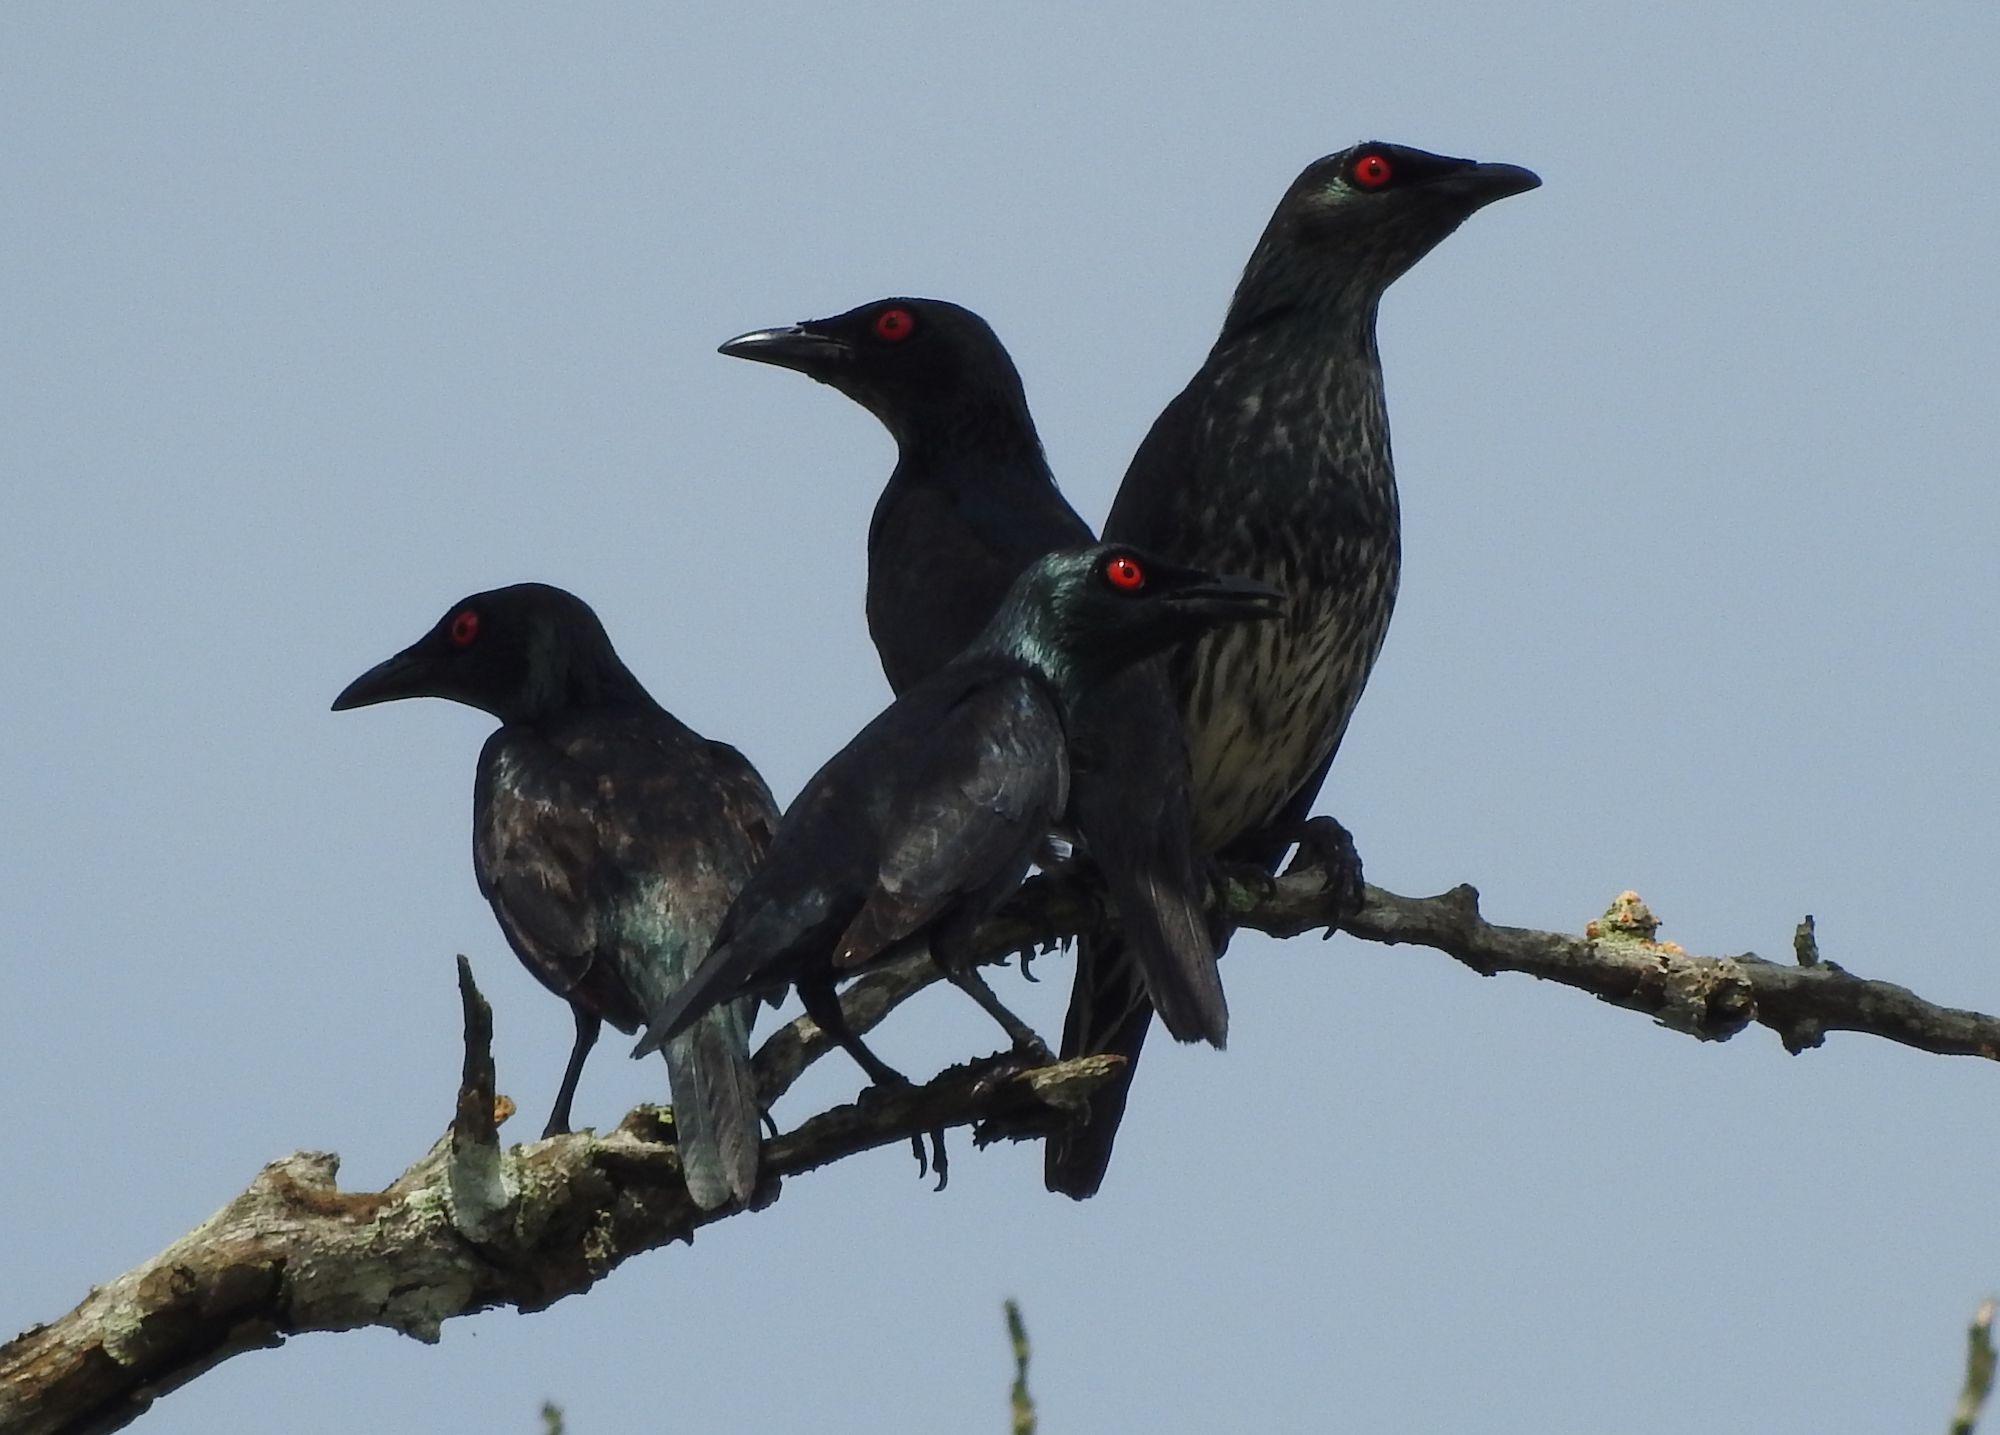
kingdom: Animalia
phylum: Chordata
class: Aves
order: Passeriformes
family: Sturnidae
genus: Aplonis
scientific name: Aplonis panayensis
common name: Asian glossy starling
